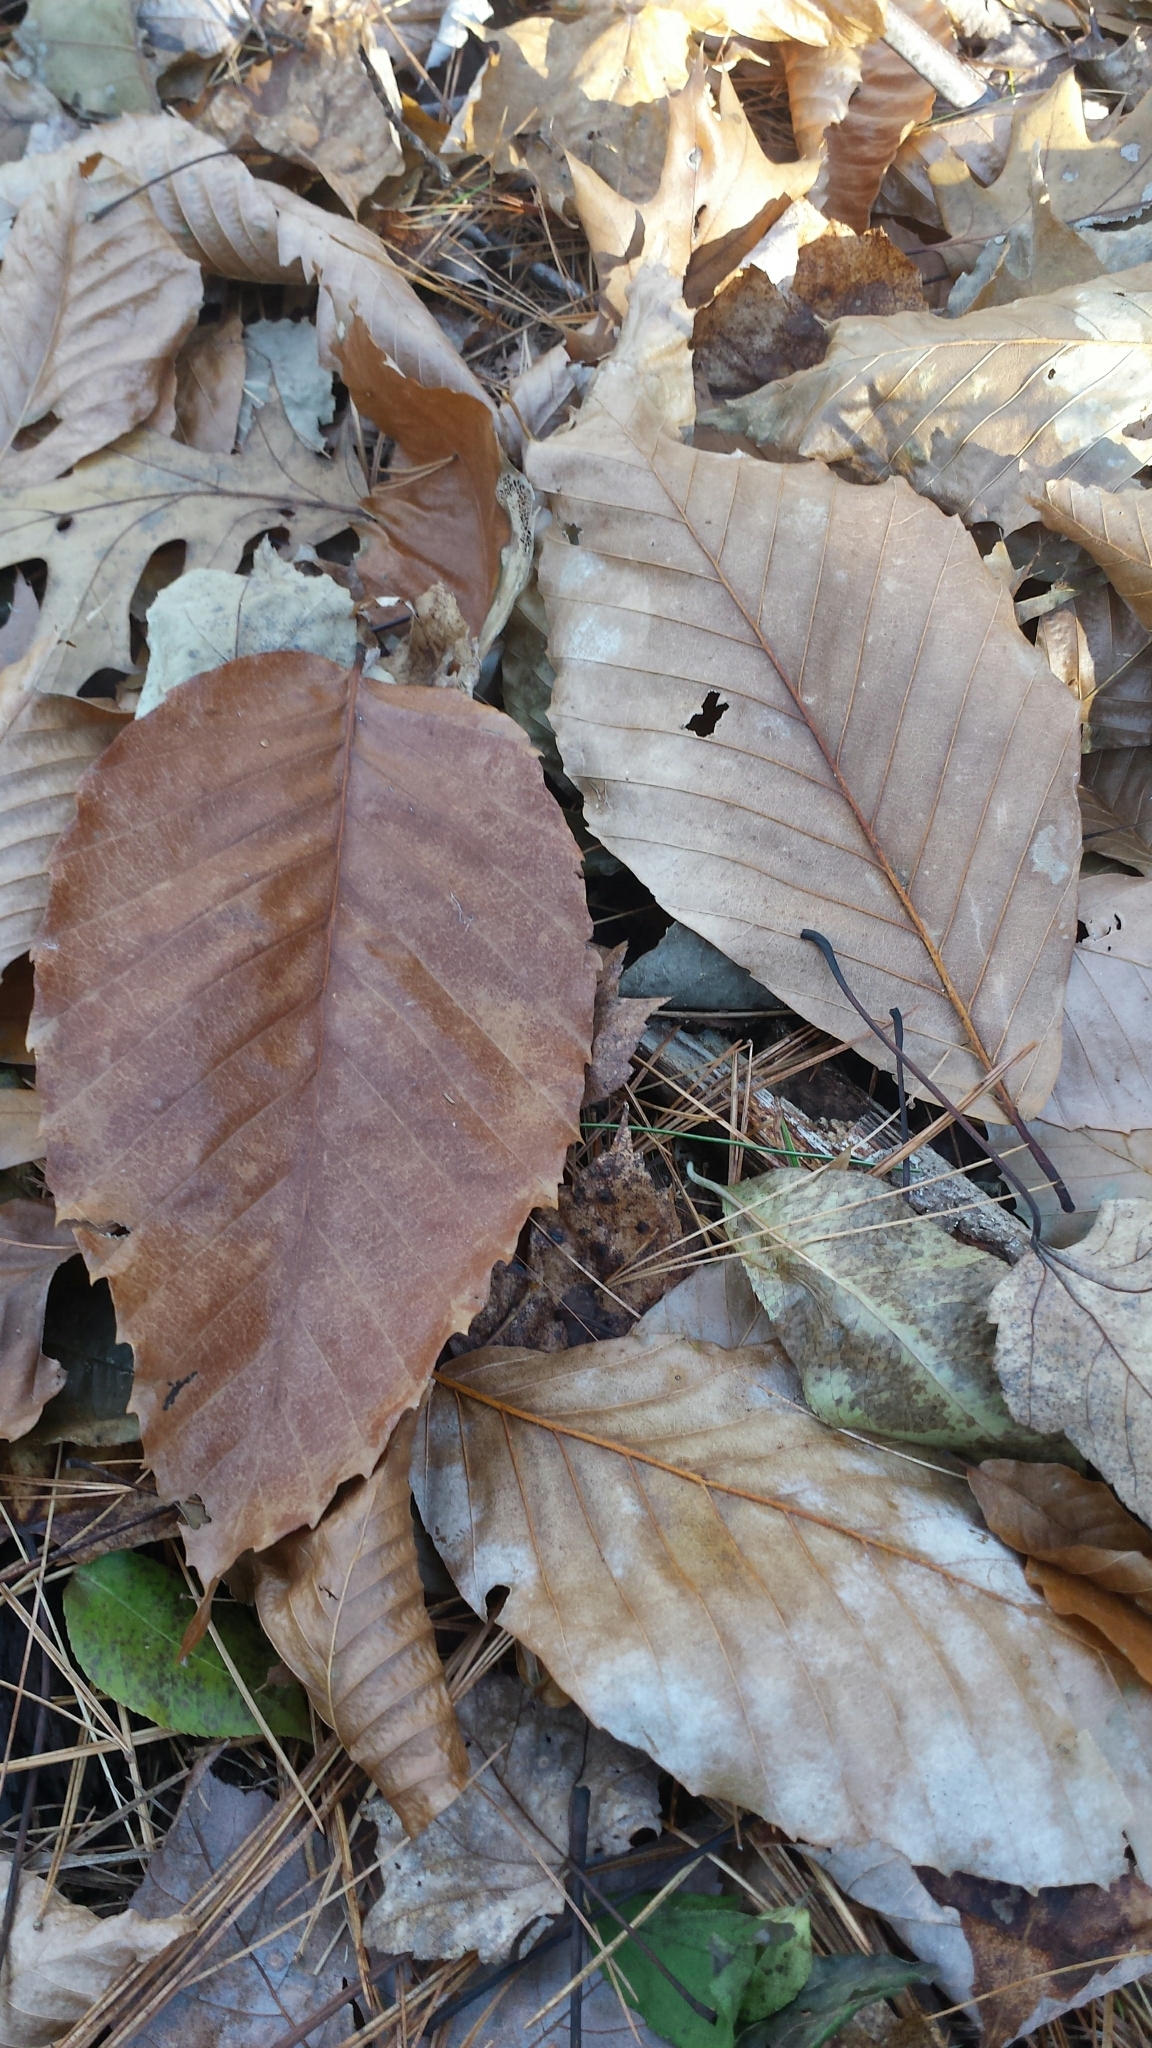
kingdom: Plantae
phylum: Tracheophyta
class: Magnoliopsida
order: Fagales
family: Fagaceae
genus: Fagus
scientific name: Fagus grandifolia
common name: American beech
